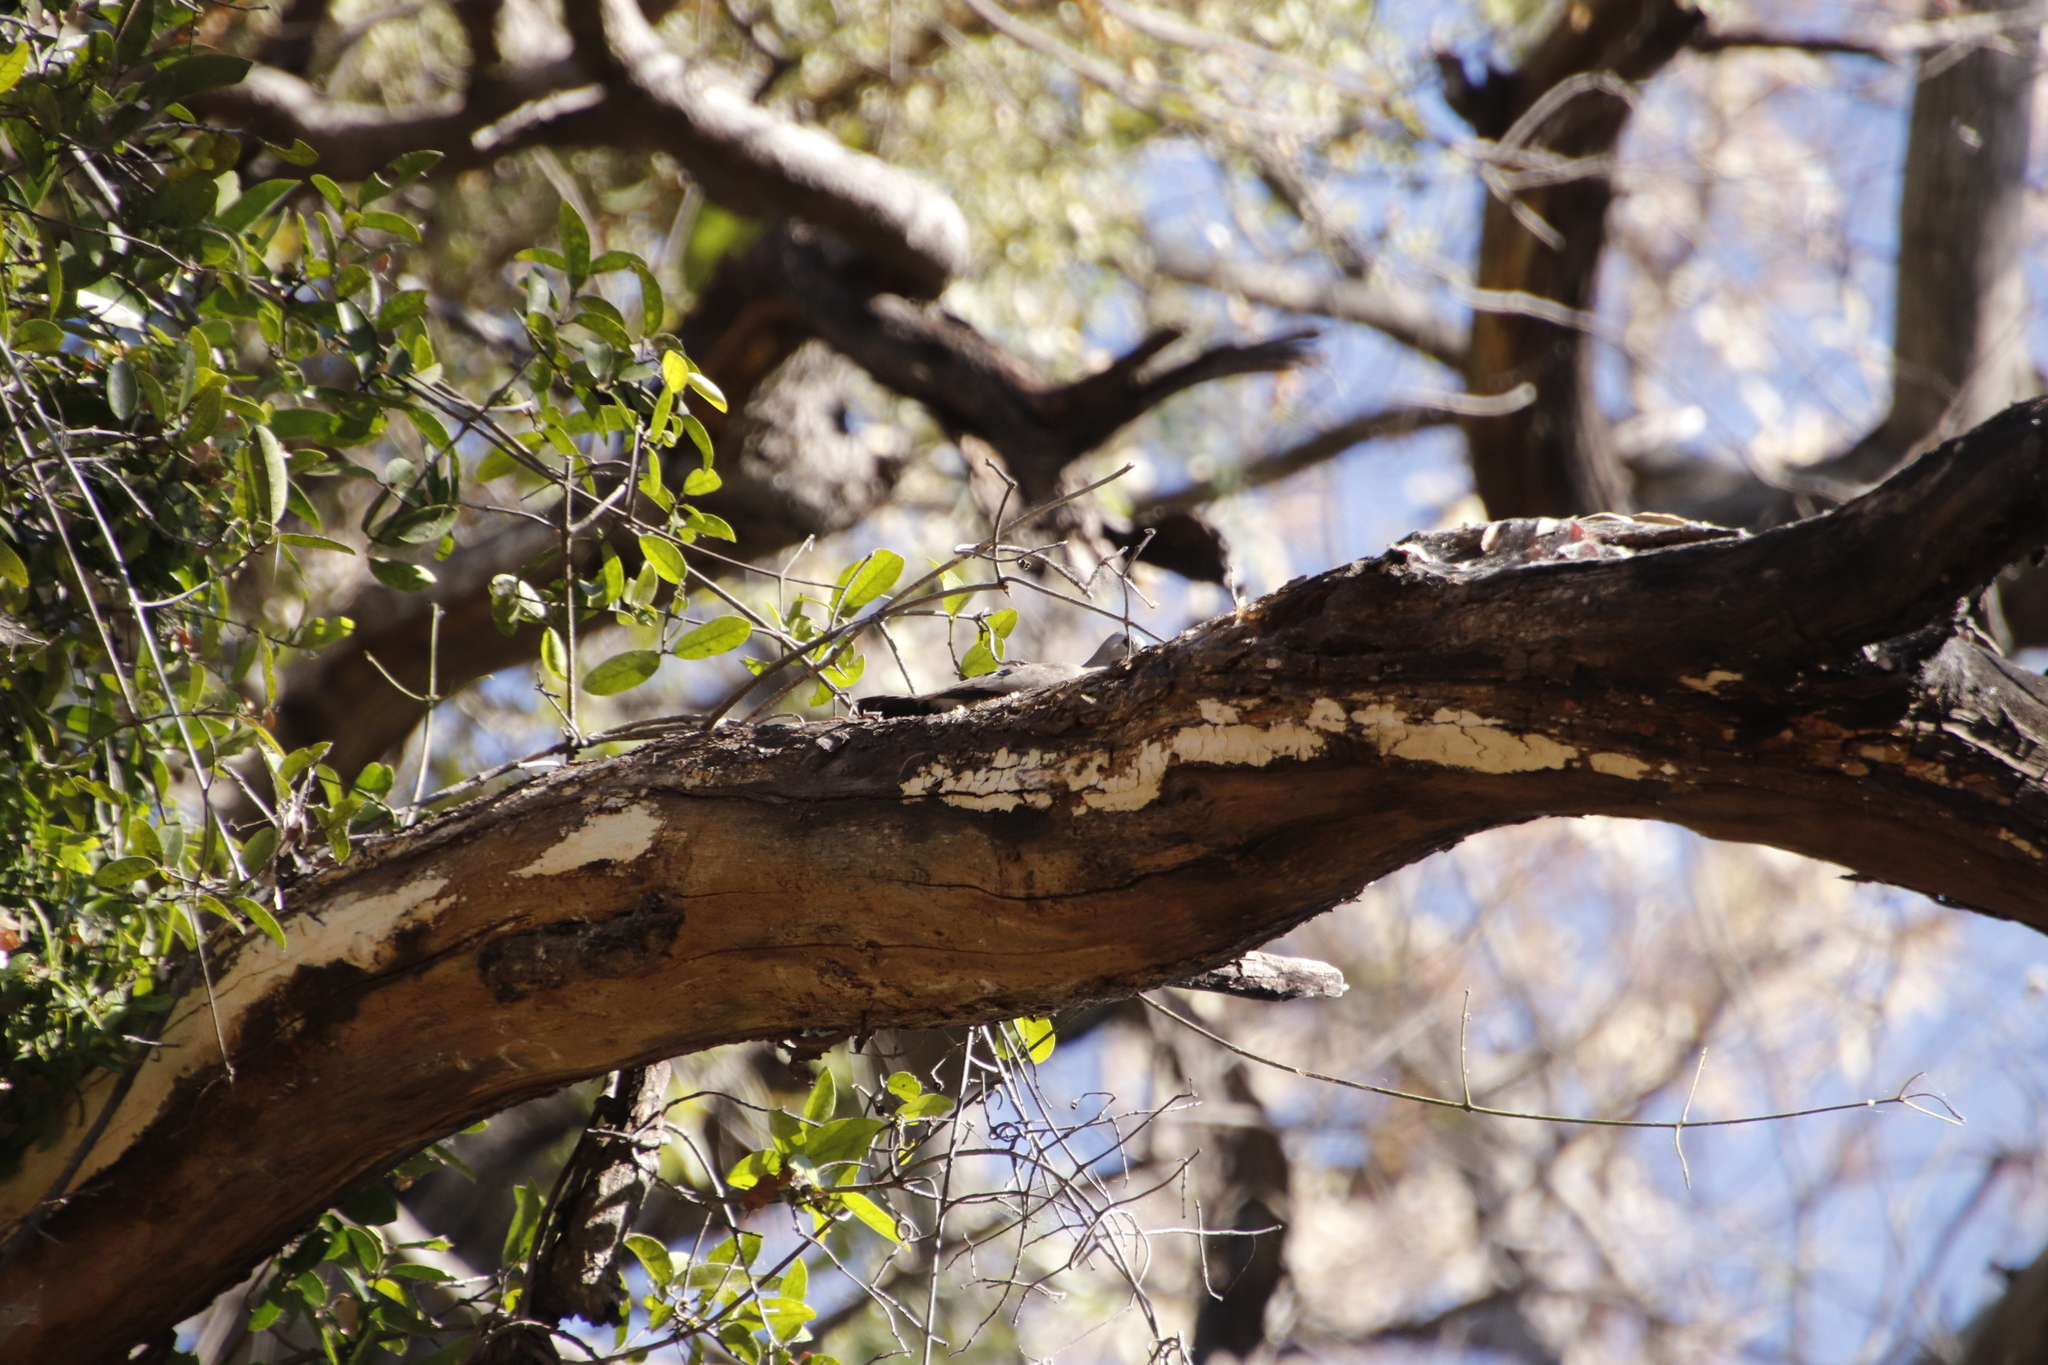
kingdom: Animalia
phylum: Chordata
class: Aves
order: Columbiformes
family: Columbidae
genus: Turtur
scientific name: Turtur chalcospilos
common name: Emerald-spotted wood dove
